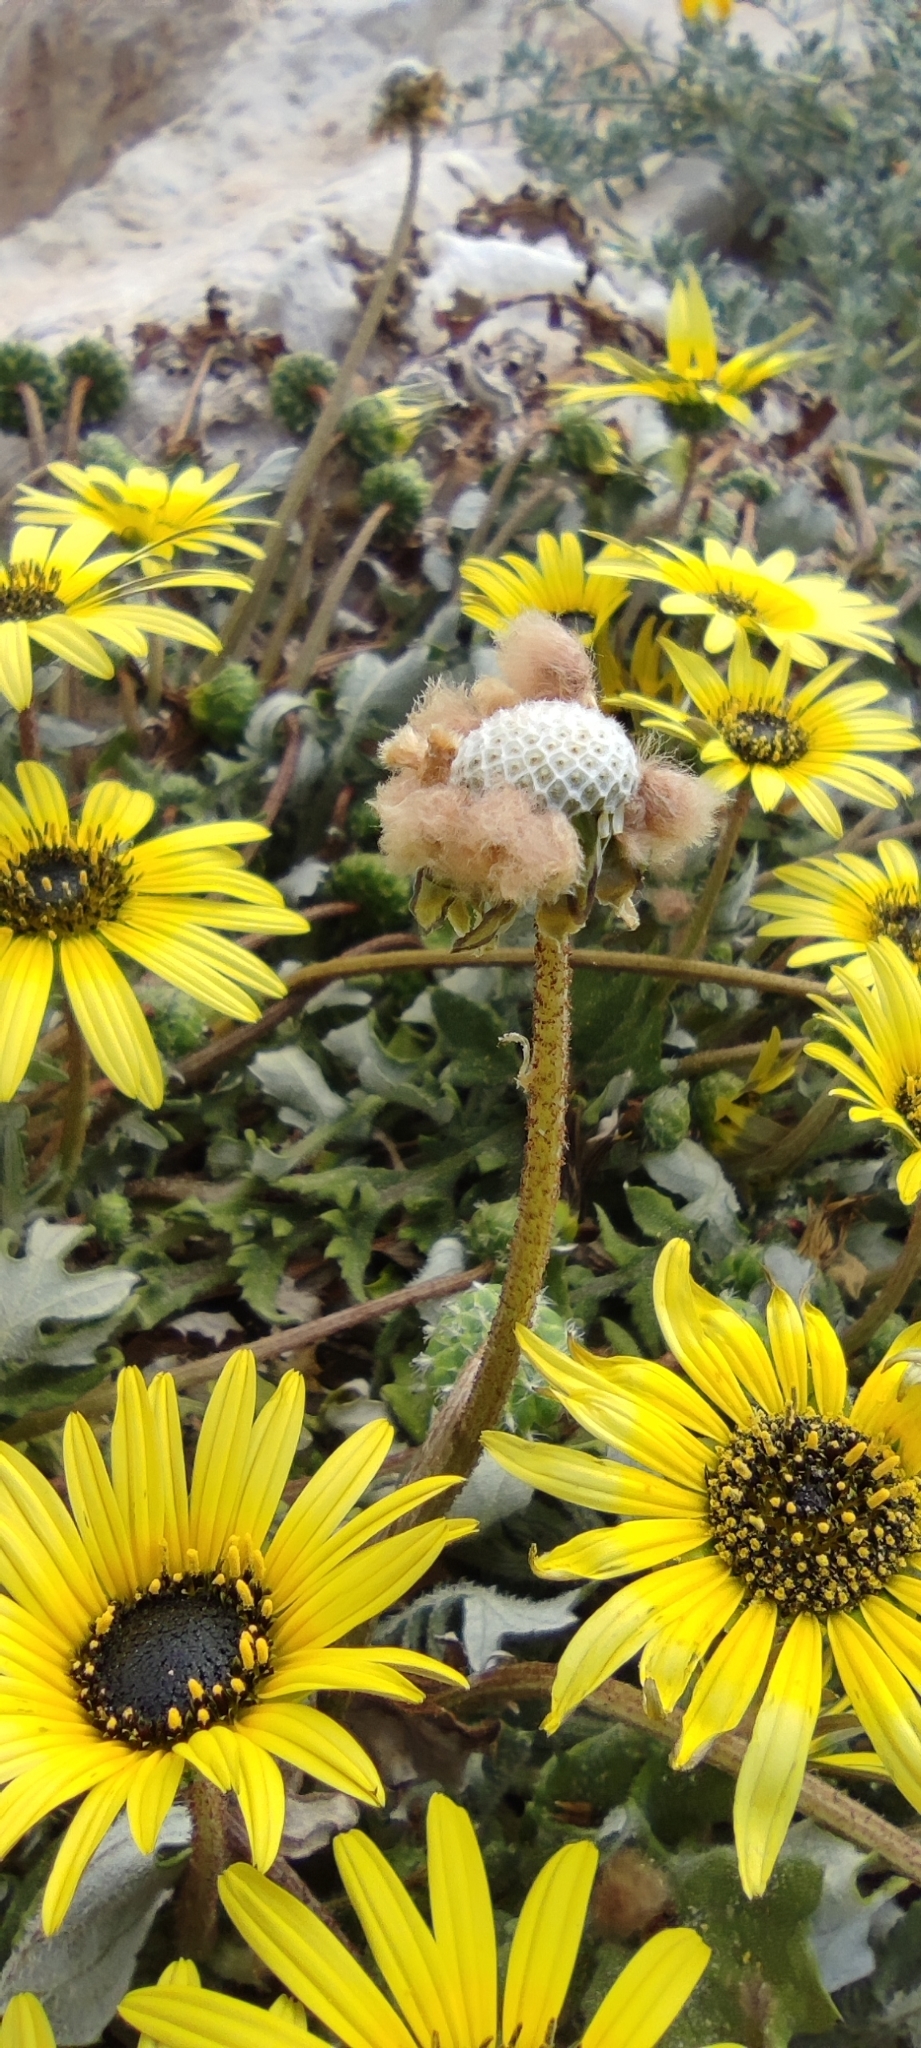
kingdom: Plantae
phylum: Tracheophyta
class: Magnoliopsida
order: Asterales
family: Asteraceae
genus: Arctotheca
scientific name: Arctotheca calendula
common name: Capeweed
